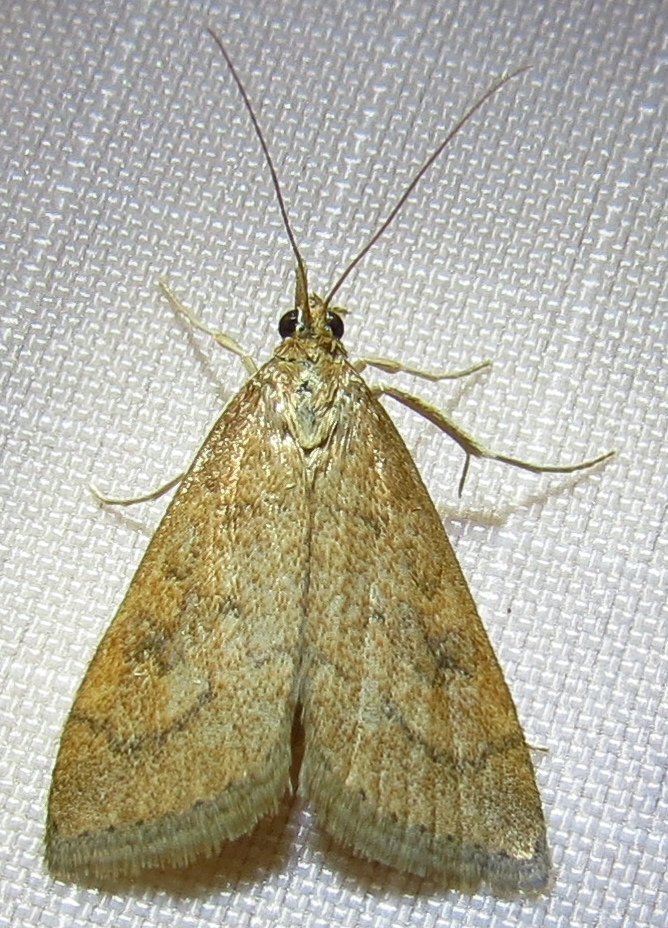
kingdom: Animalia
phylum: Arthropoda
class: Insecta
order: Lepidoptera
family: Crambidae
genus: Udea
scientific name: Udea rubigalis
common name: Celery leaftier moth
